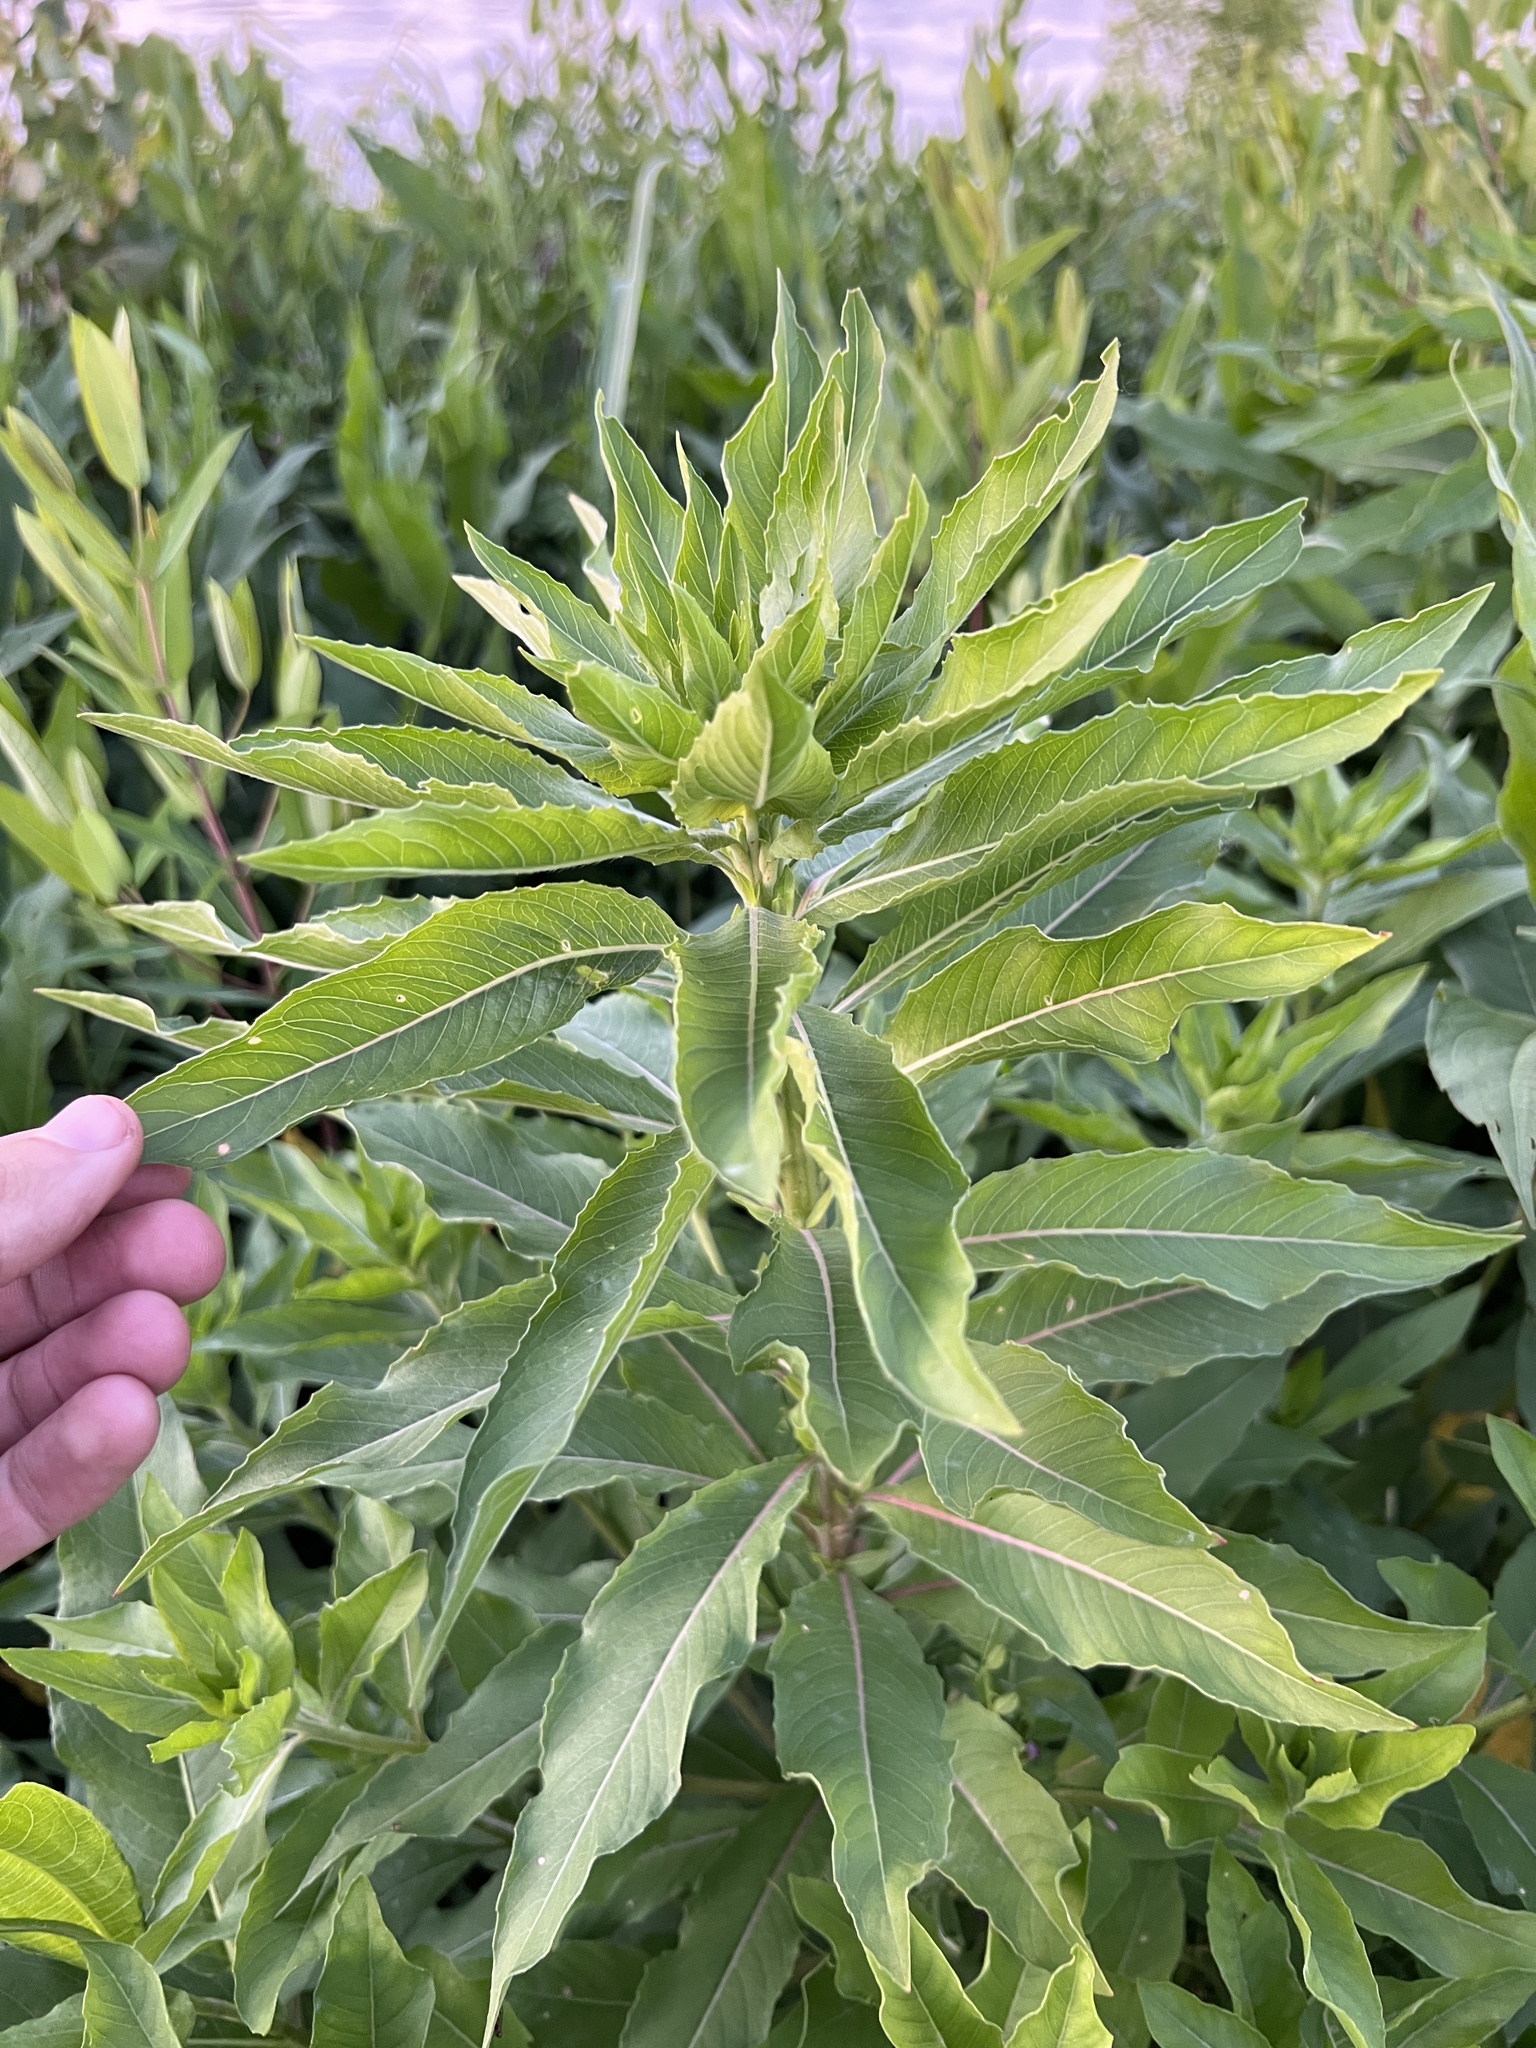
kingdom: Plantae
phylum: Tracheophyta
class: Magnoliopsida
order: Myrtales
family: Onagraceae
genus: Oenothera
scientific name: Oenothera biennis
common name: Common evening-primrose
